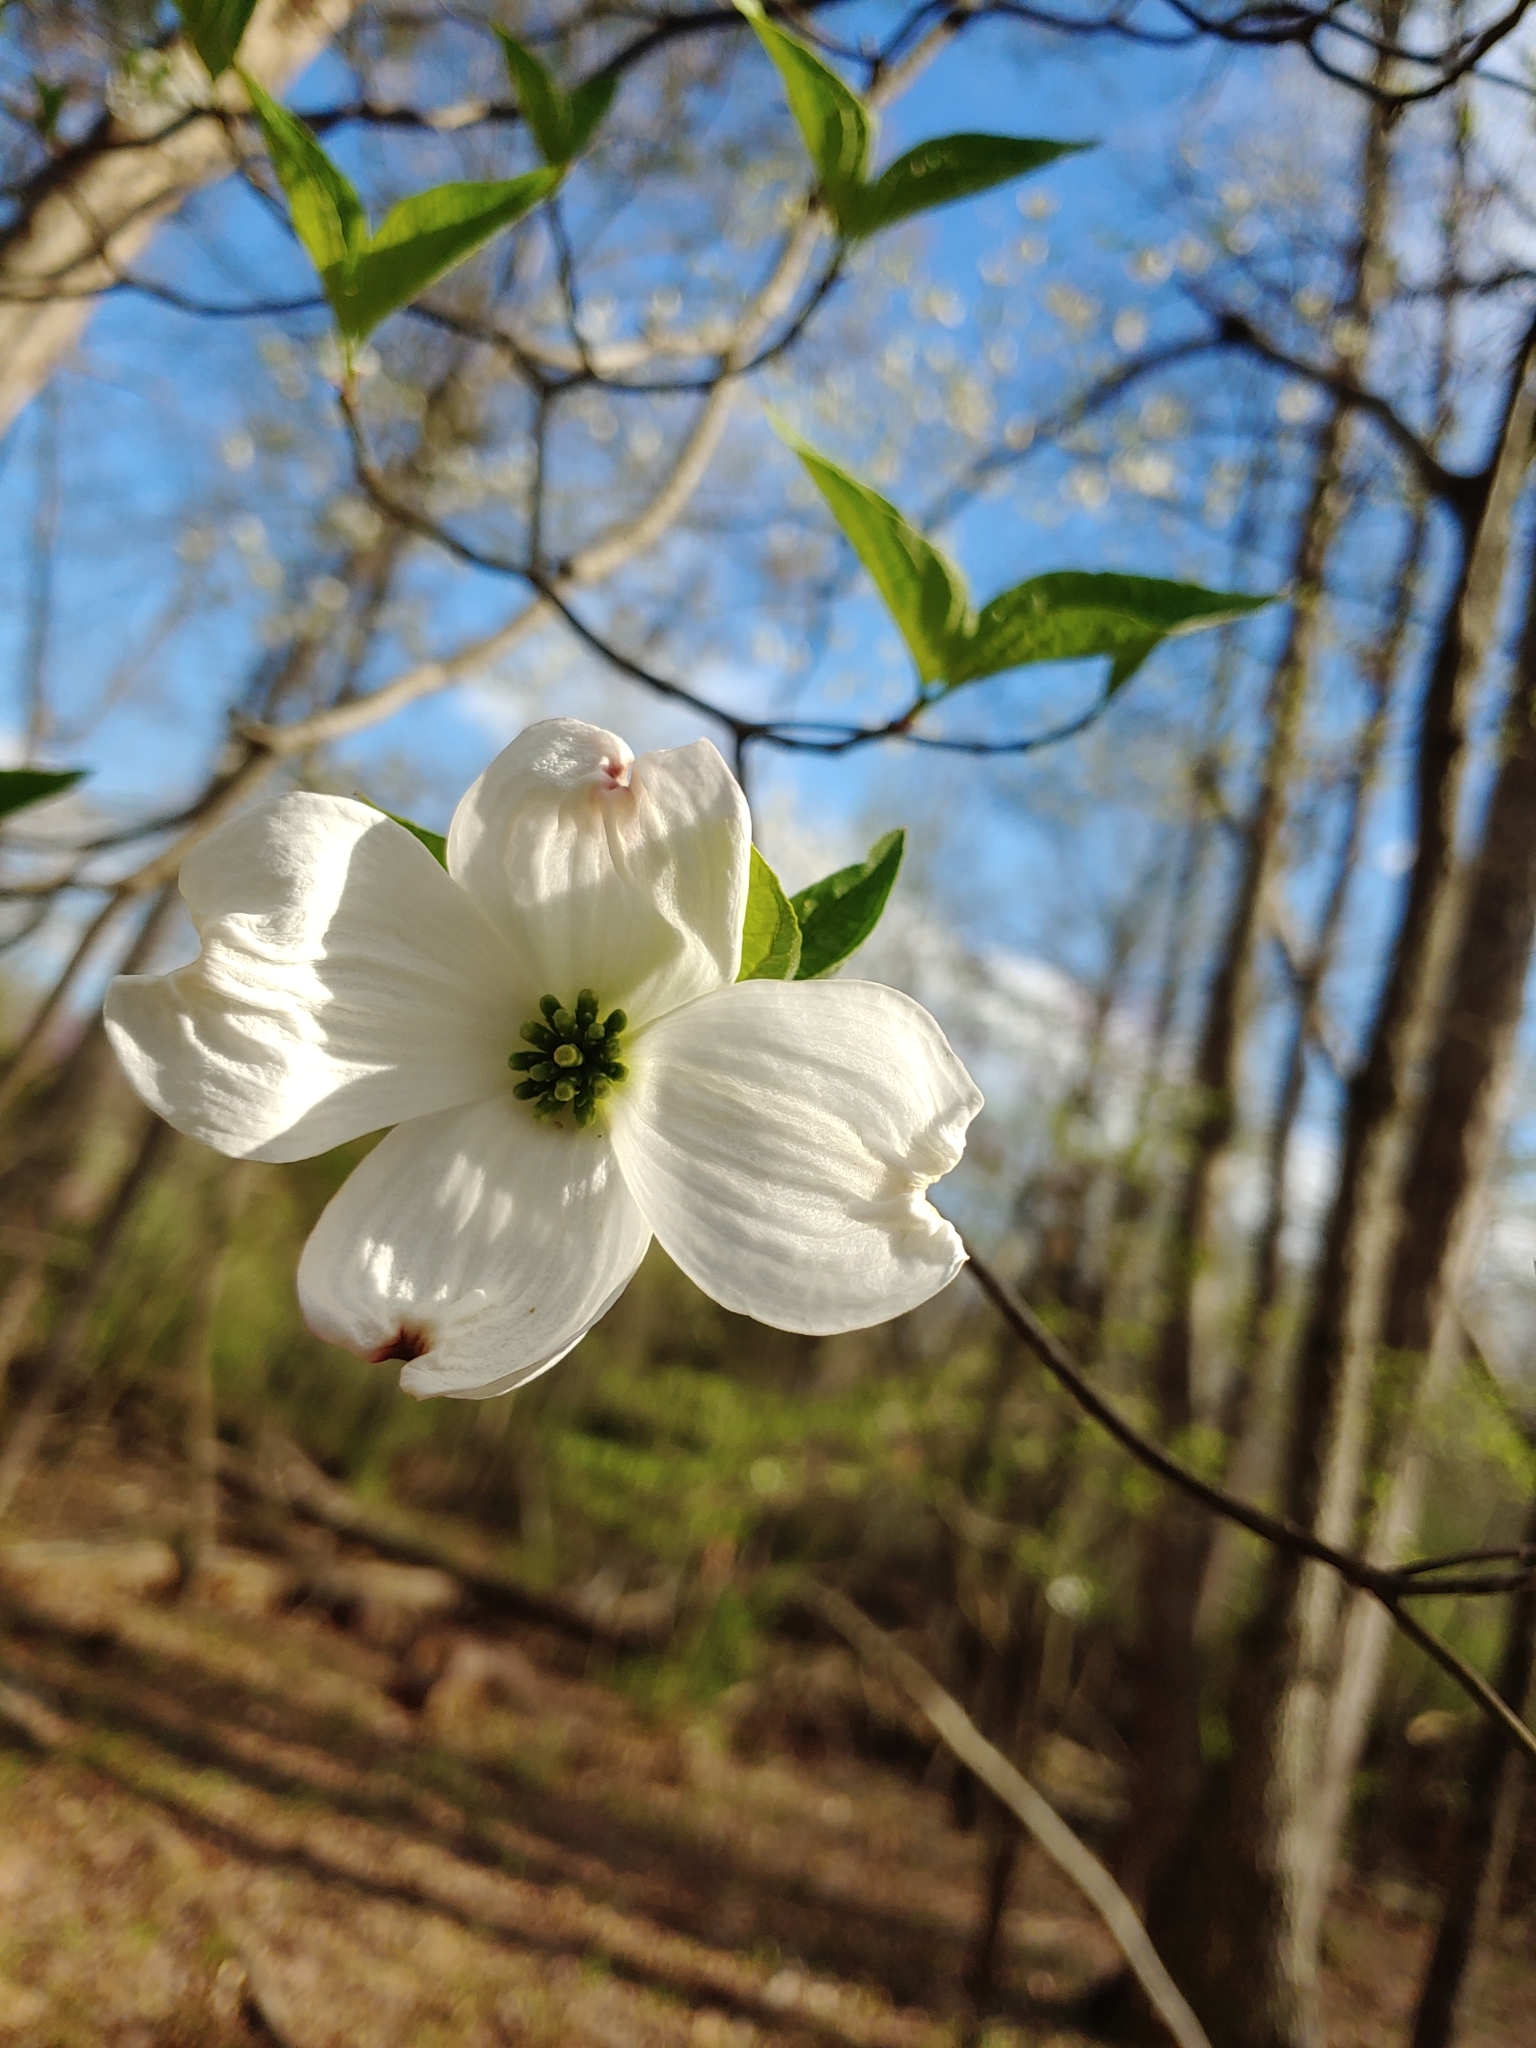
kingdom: Plantae
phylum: Tracheophyta
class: Magnoliopsida
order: Cornales
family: Cornaceae
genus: Cornus
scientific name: Cornus florida
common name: Flowering dogwood
